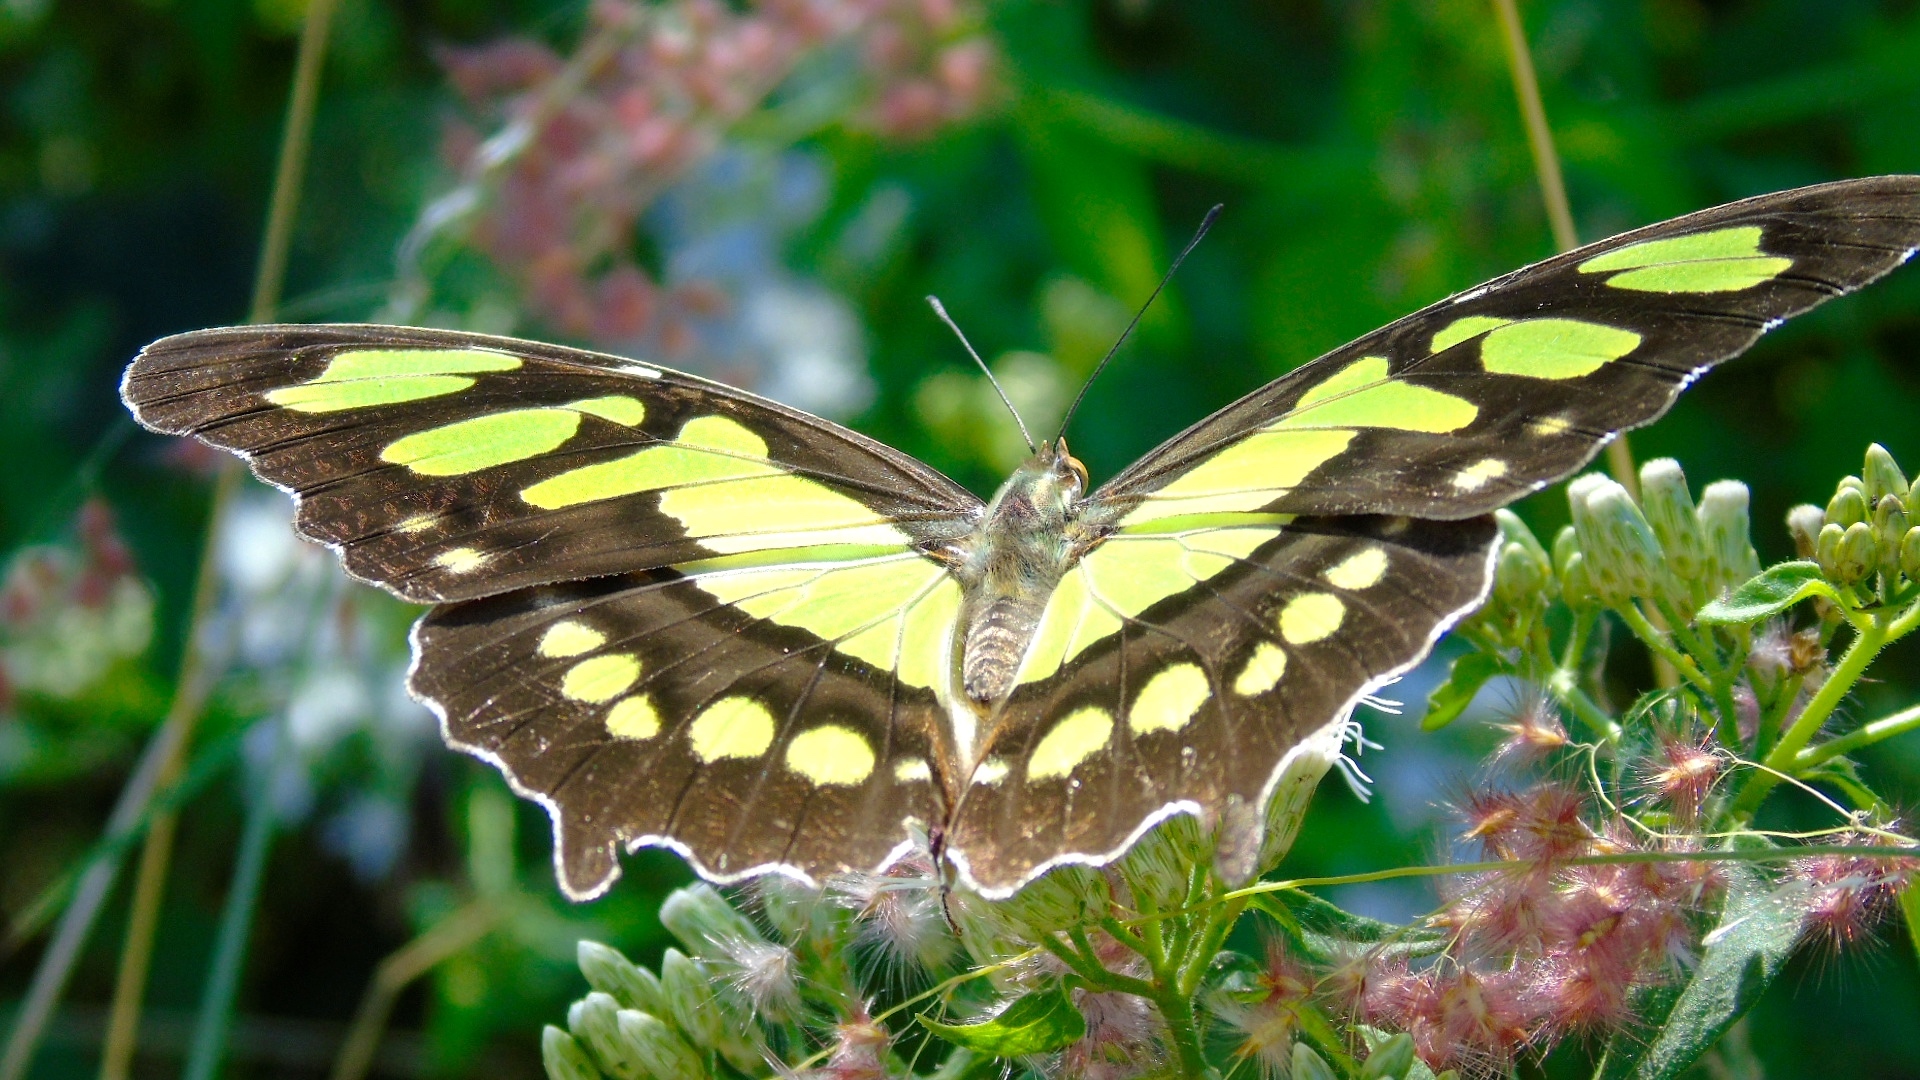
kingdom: Animalia
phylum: Arthropoda
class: Insecta
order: Lepidoptera
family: Nymphalidae
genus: Siproeta
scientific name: Siproeta stelenes
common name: Malachite
